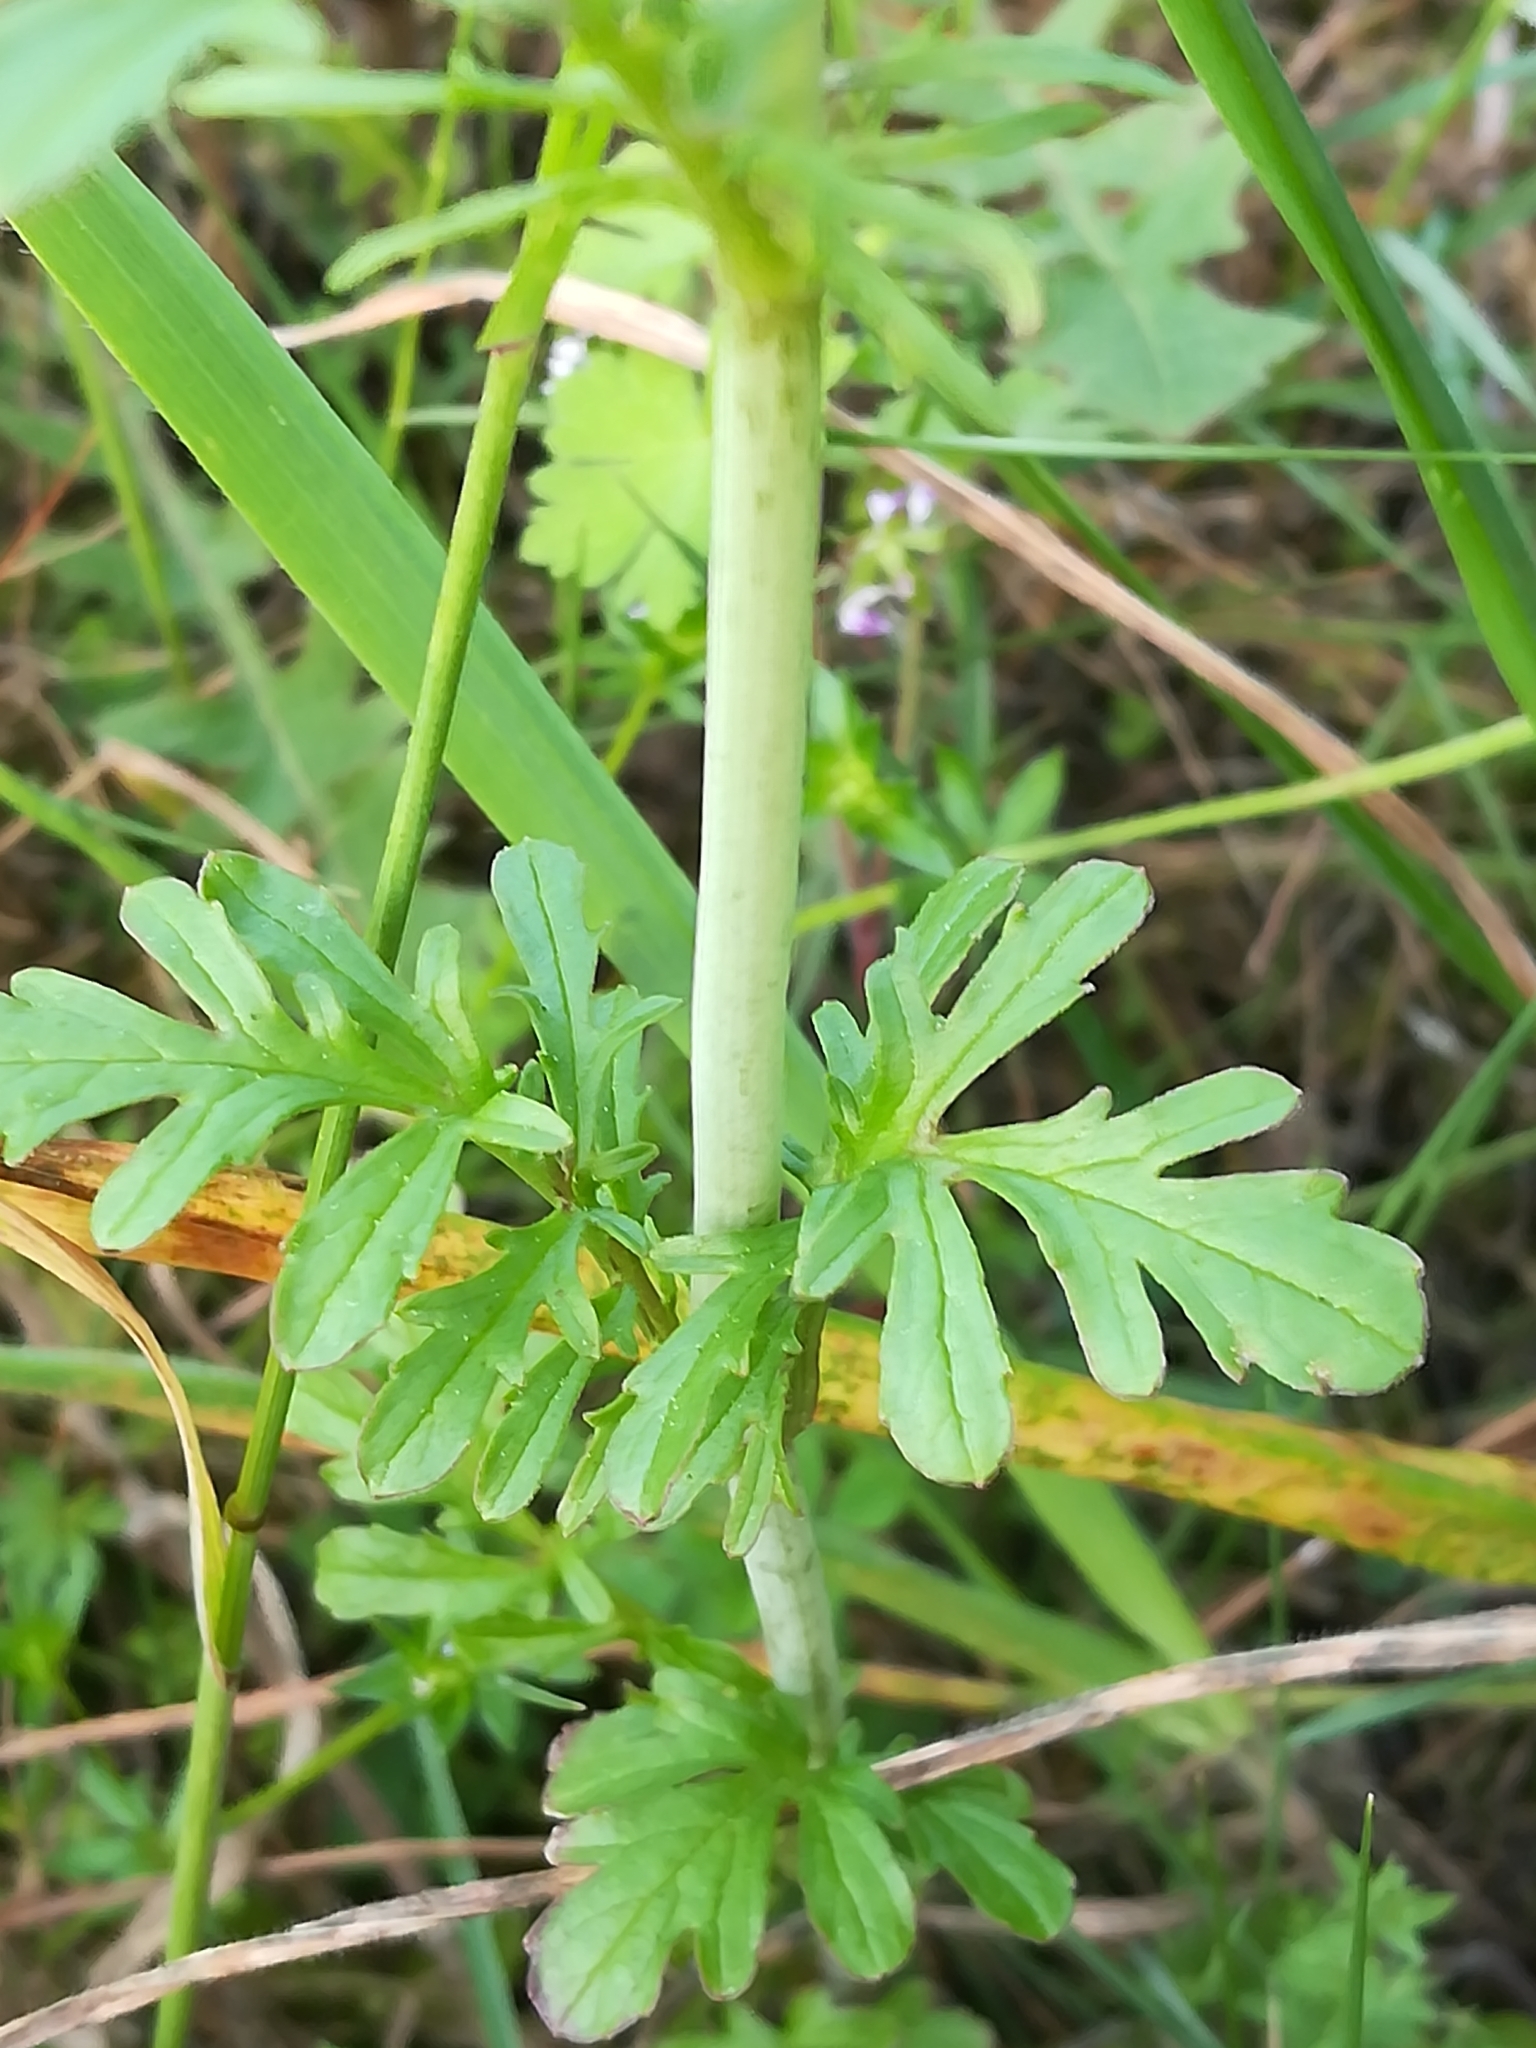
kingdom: Plantae
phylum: Tracheophyta
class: Magnoliopsida
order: Dipsacales
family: Caprifoliaceae
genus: Centranthus
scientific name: Centranthus calcitrapae
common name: Annual valerian
